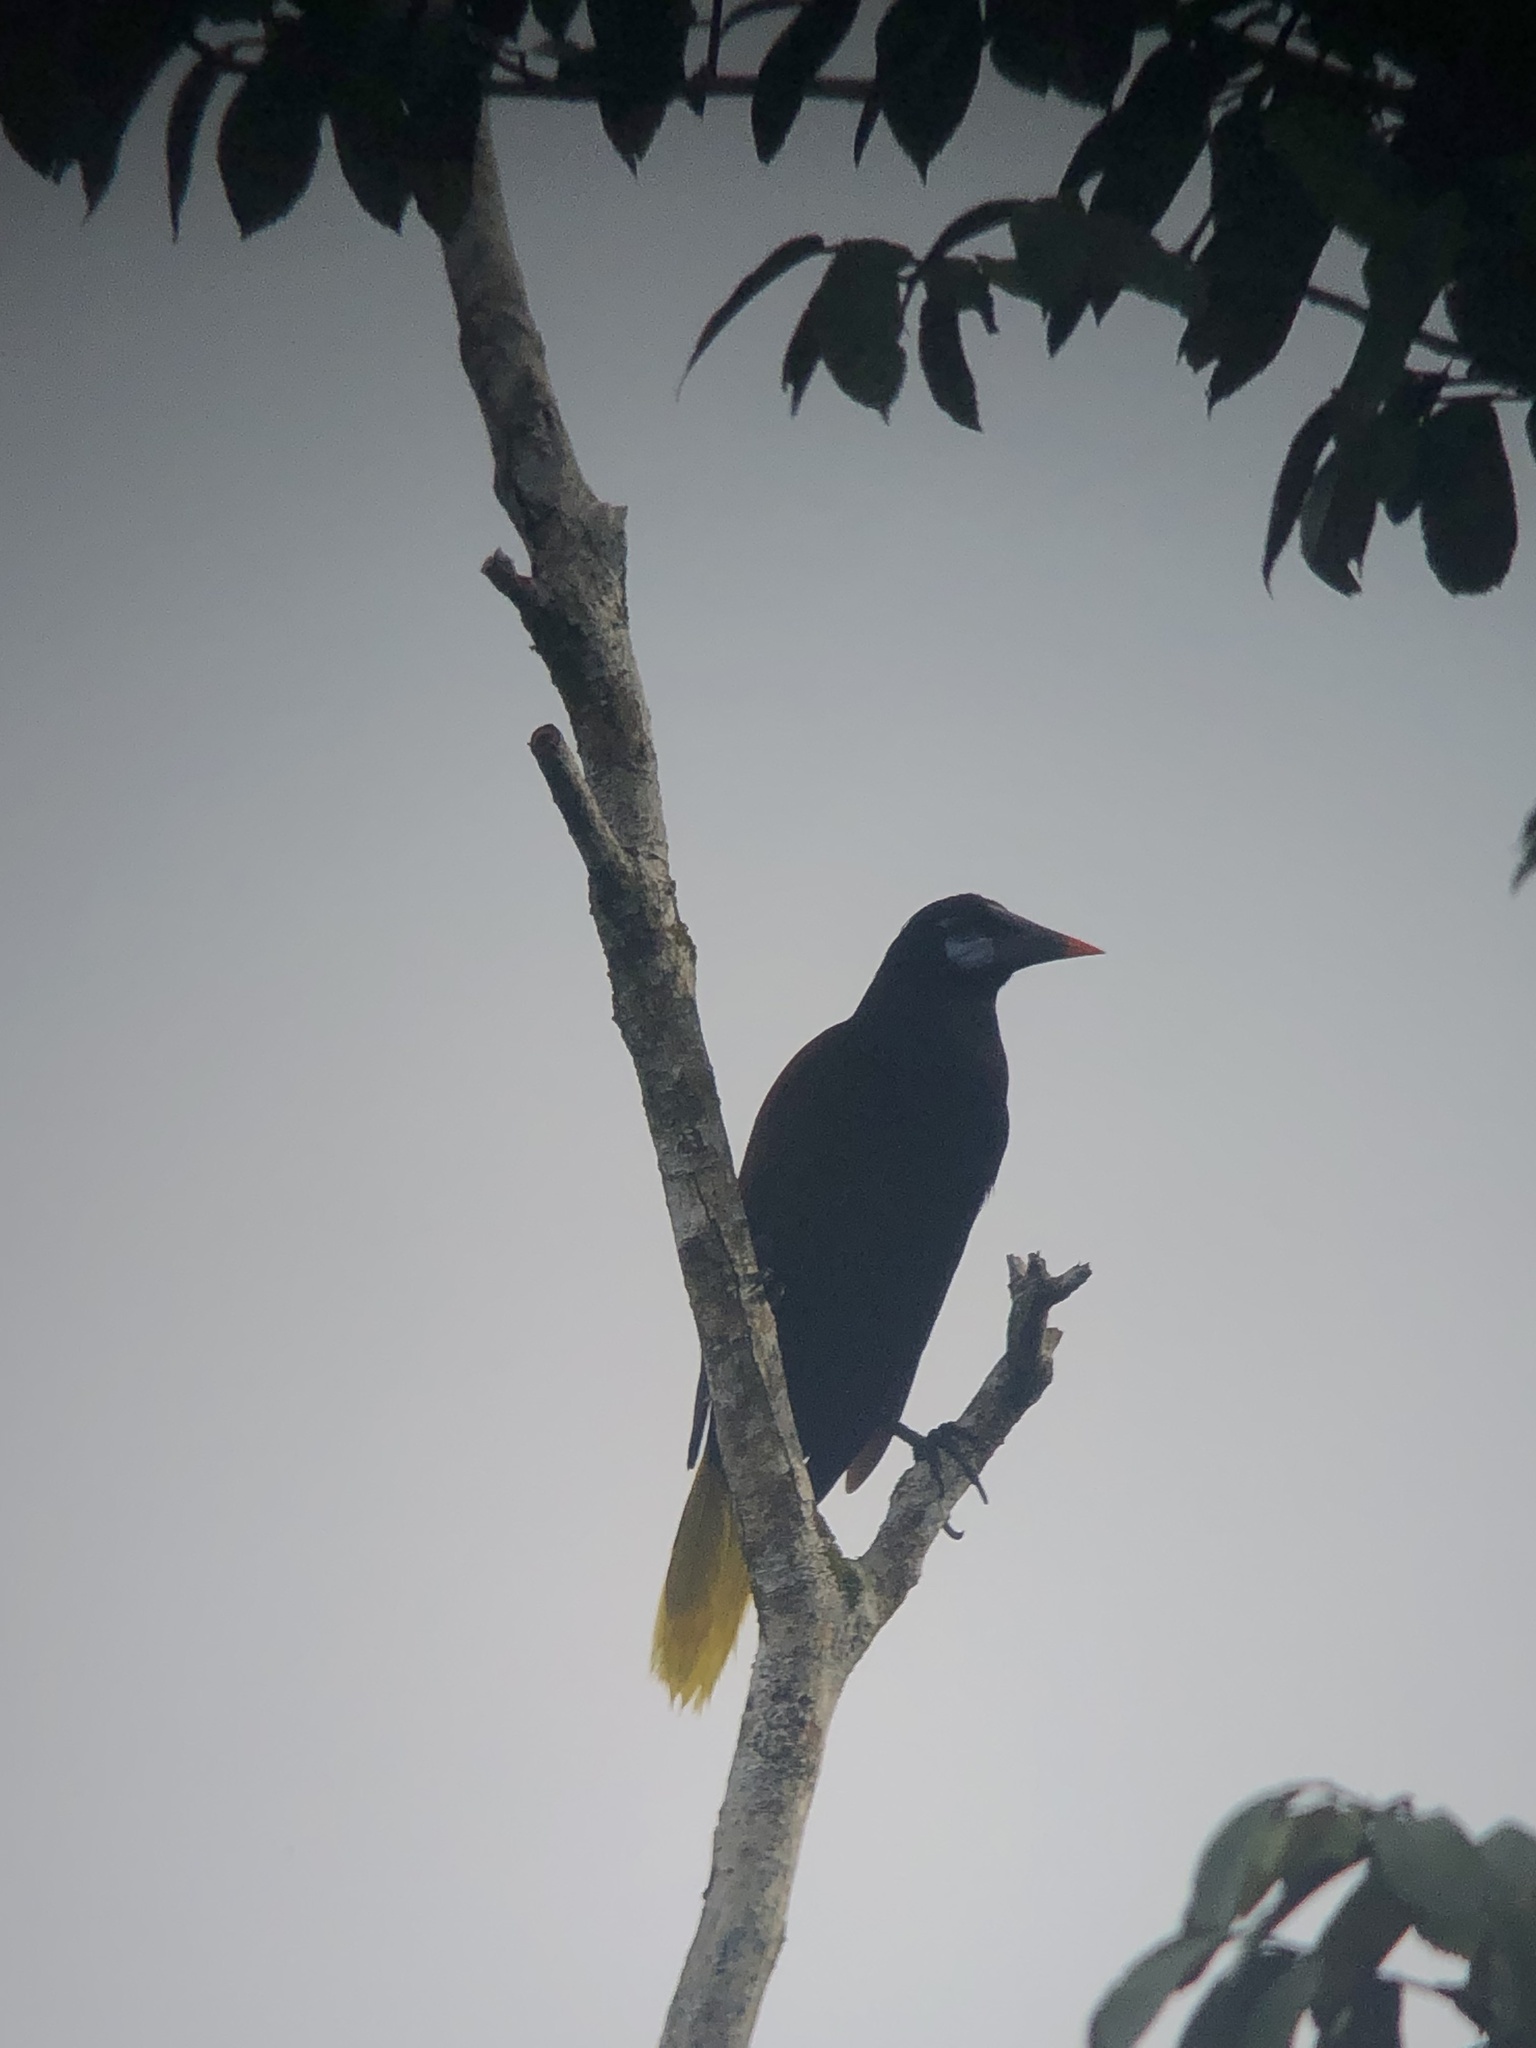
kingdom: Animalia
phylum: Chordata
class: Aves
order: Passeriformes
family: Icteridae
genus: Psarocolius
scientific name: Psarocolius guatimozinus
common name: Black oropendola
